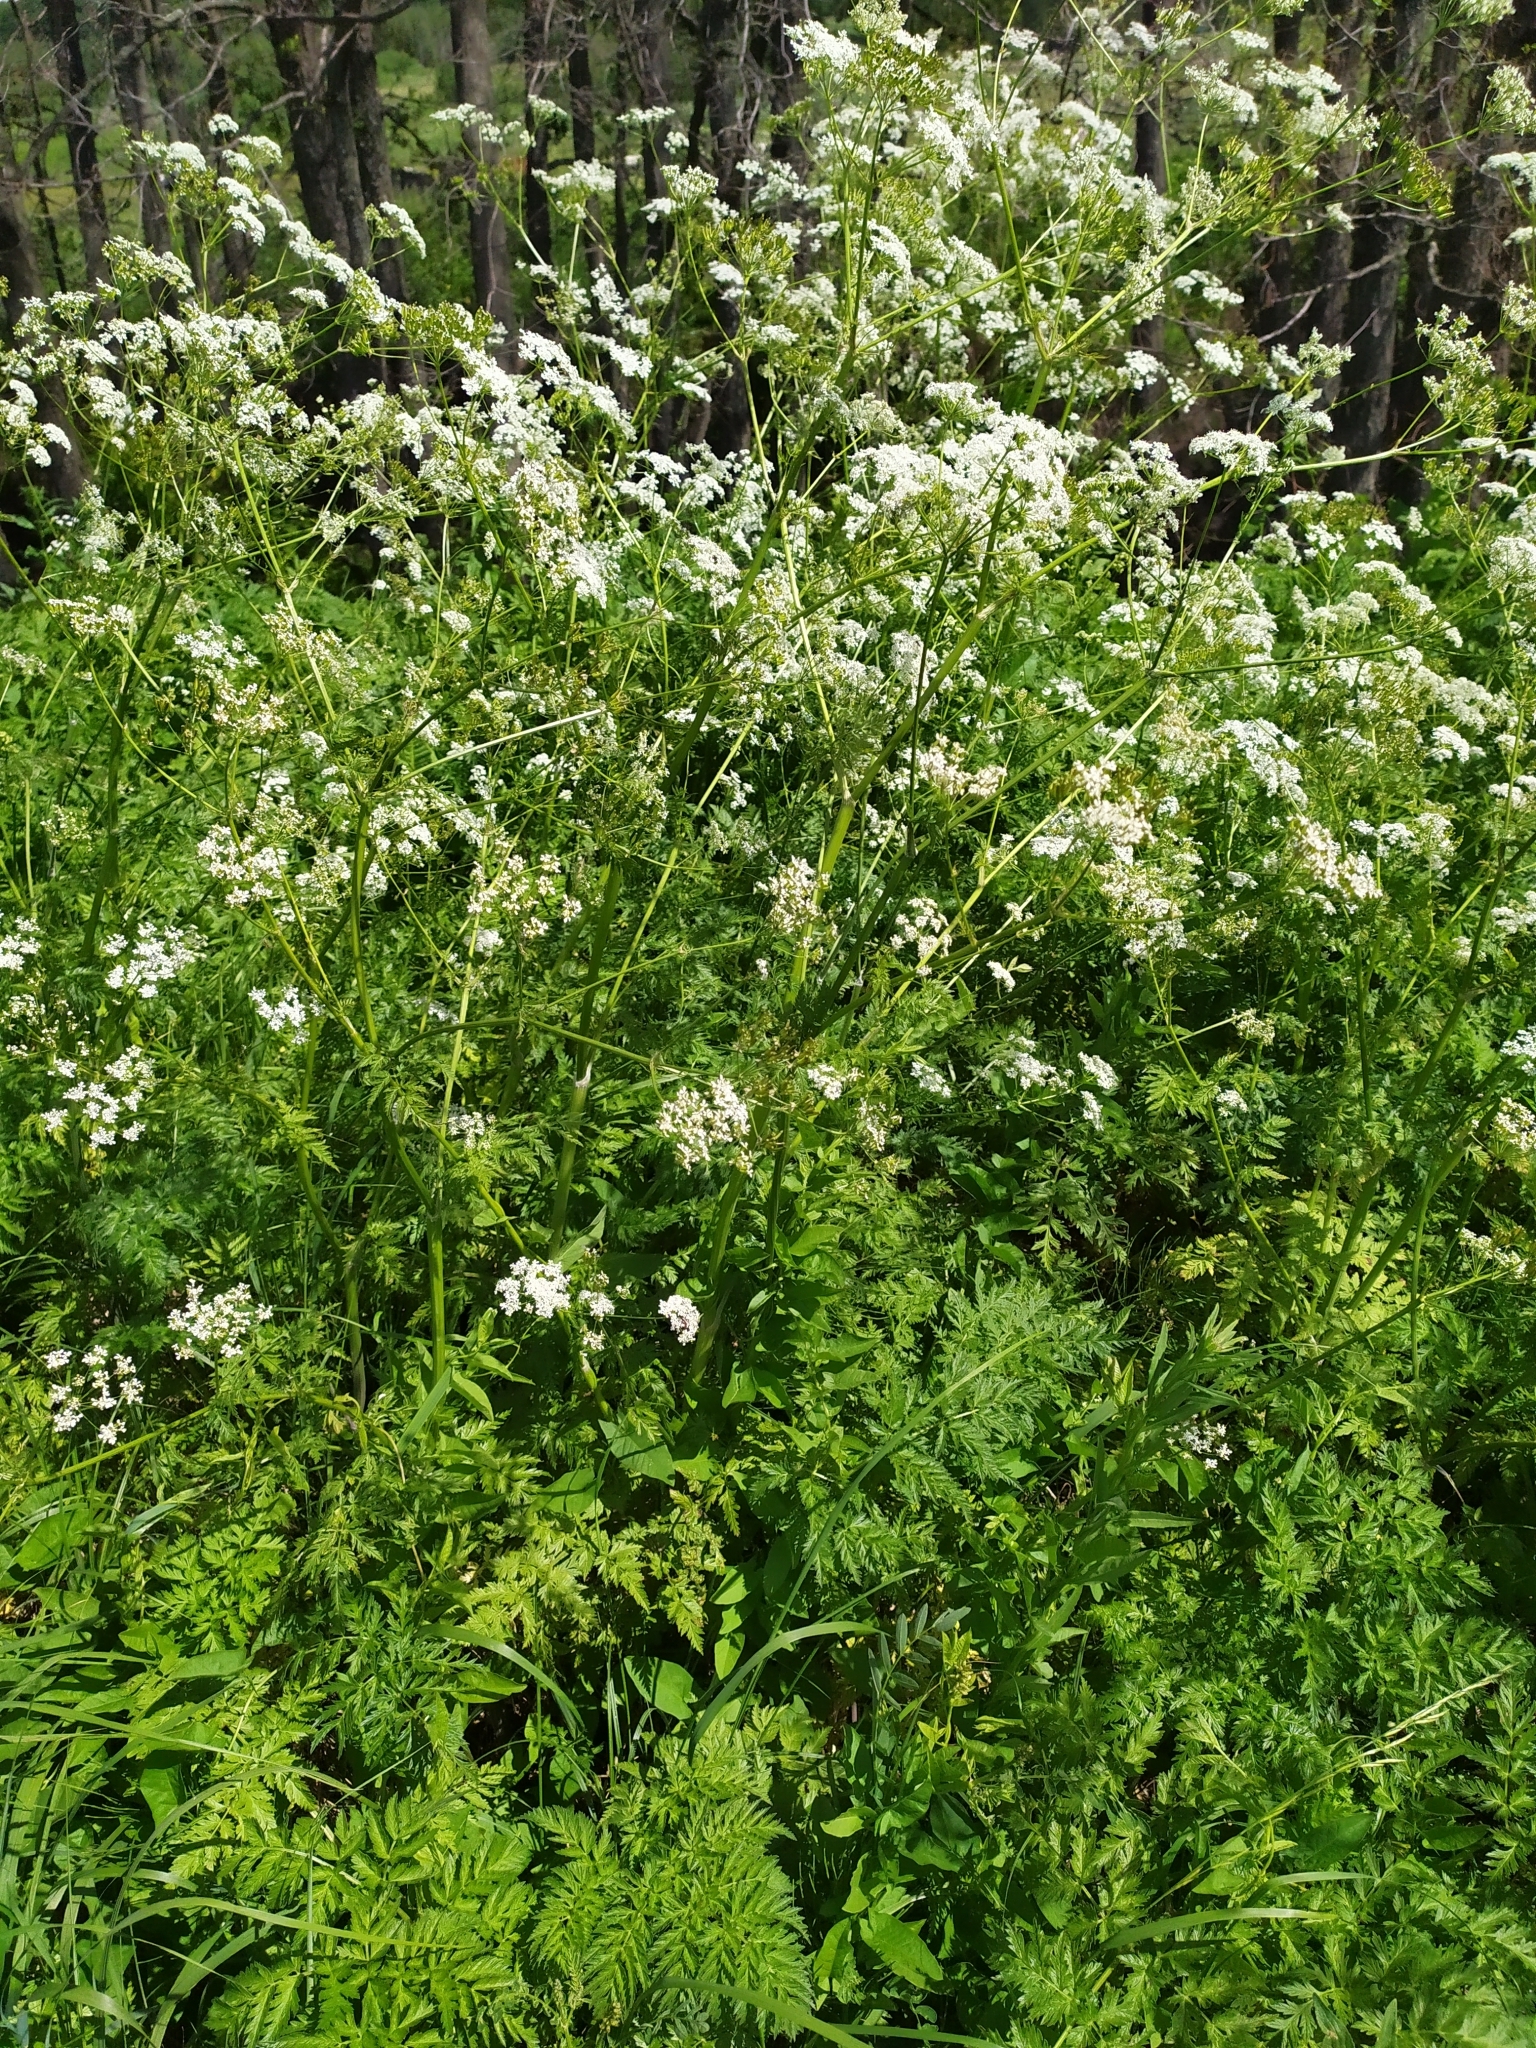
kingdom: Plantae
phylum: Tracheophyta
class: Magnoliopsida
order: Apiales
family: Apiaceae
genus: Anthriscus
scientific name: Anthriscus sylvestris
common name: Cow parsley
